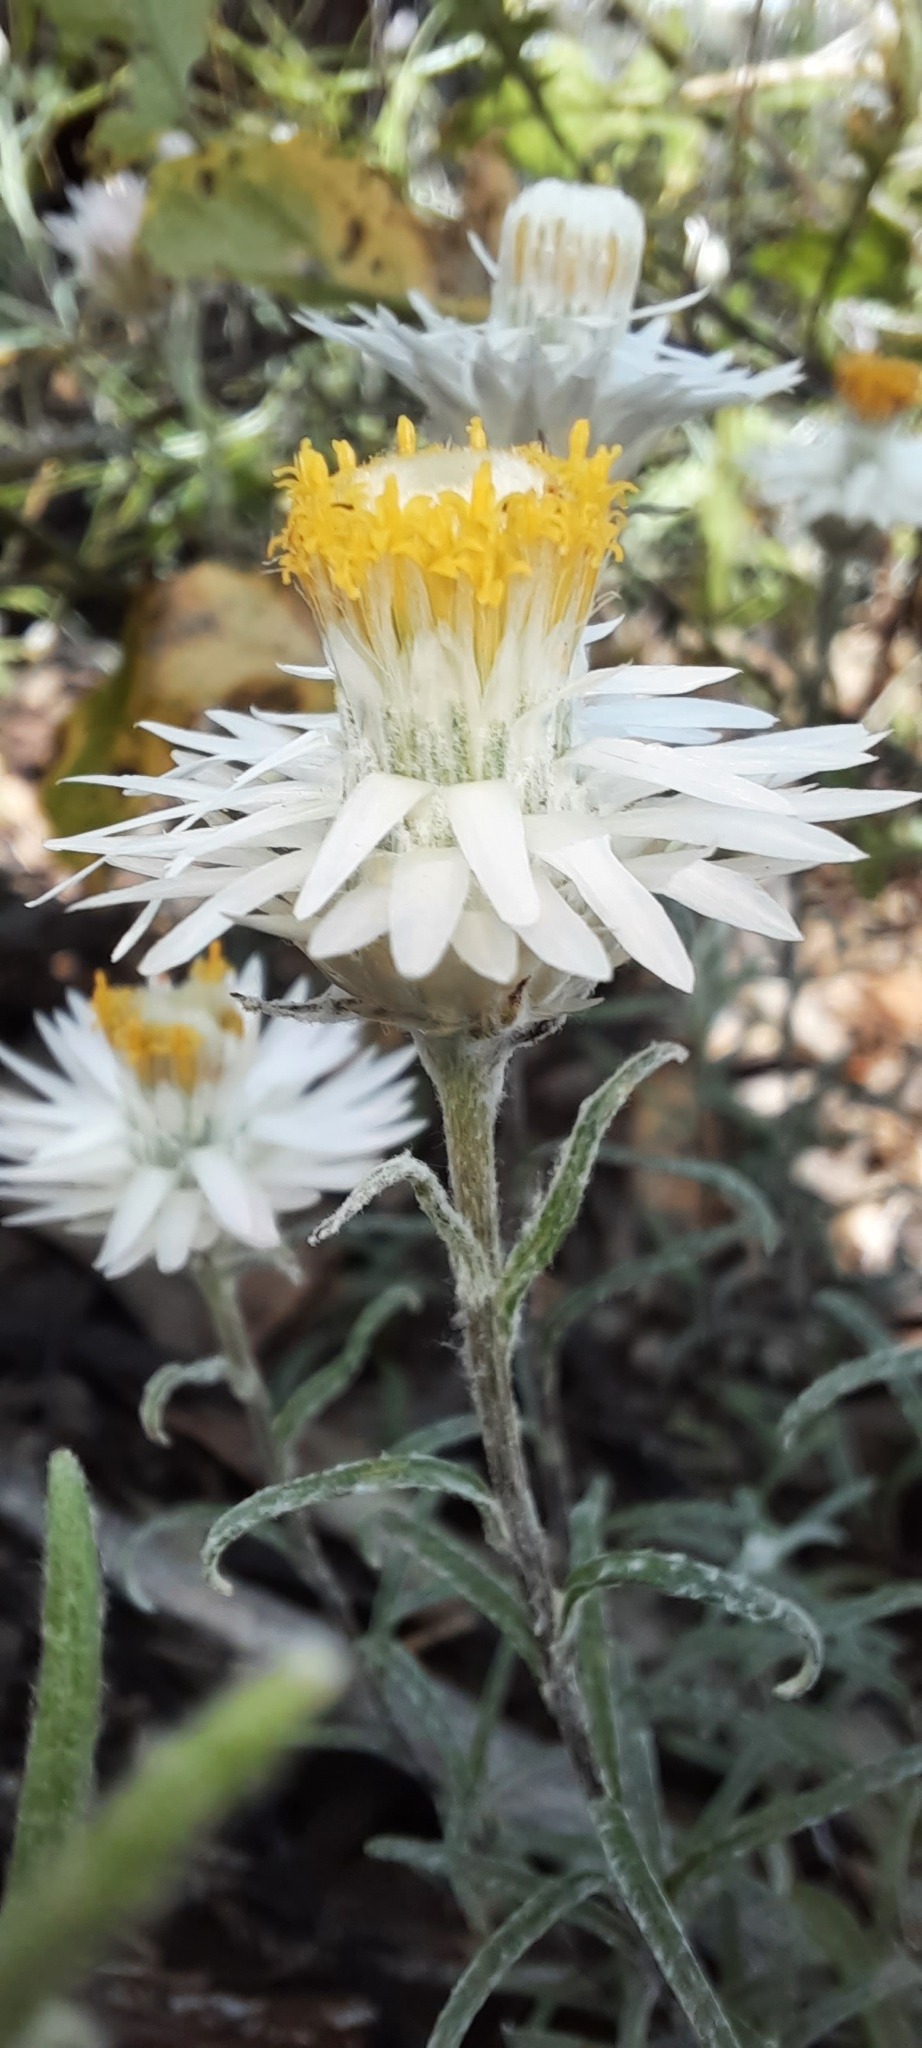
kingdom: Plantae
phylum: Tracheophyta
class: Magnoliopsida
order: Asterales
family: Asteraceae
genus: Helichrysum
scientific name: Helichrysum leucopsideum
